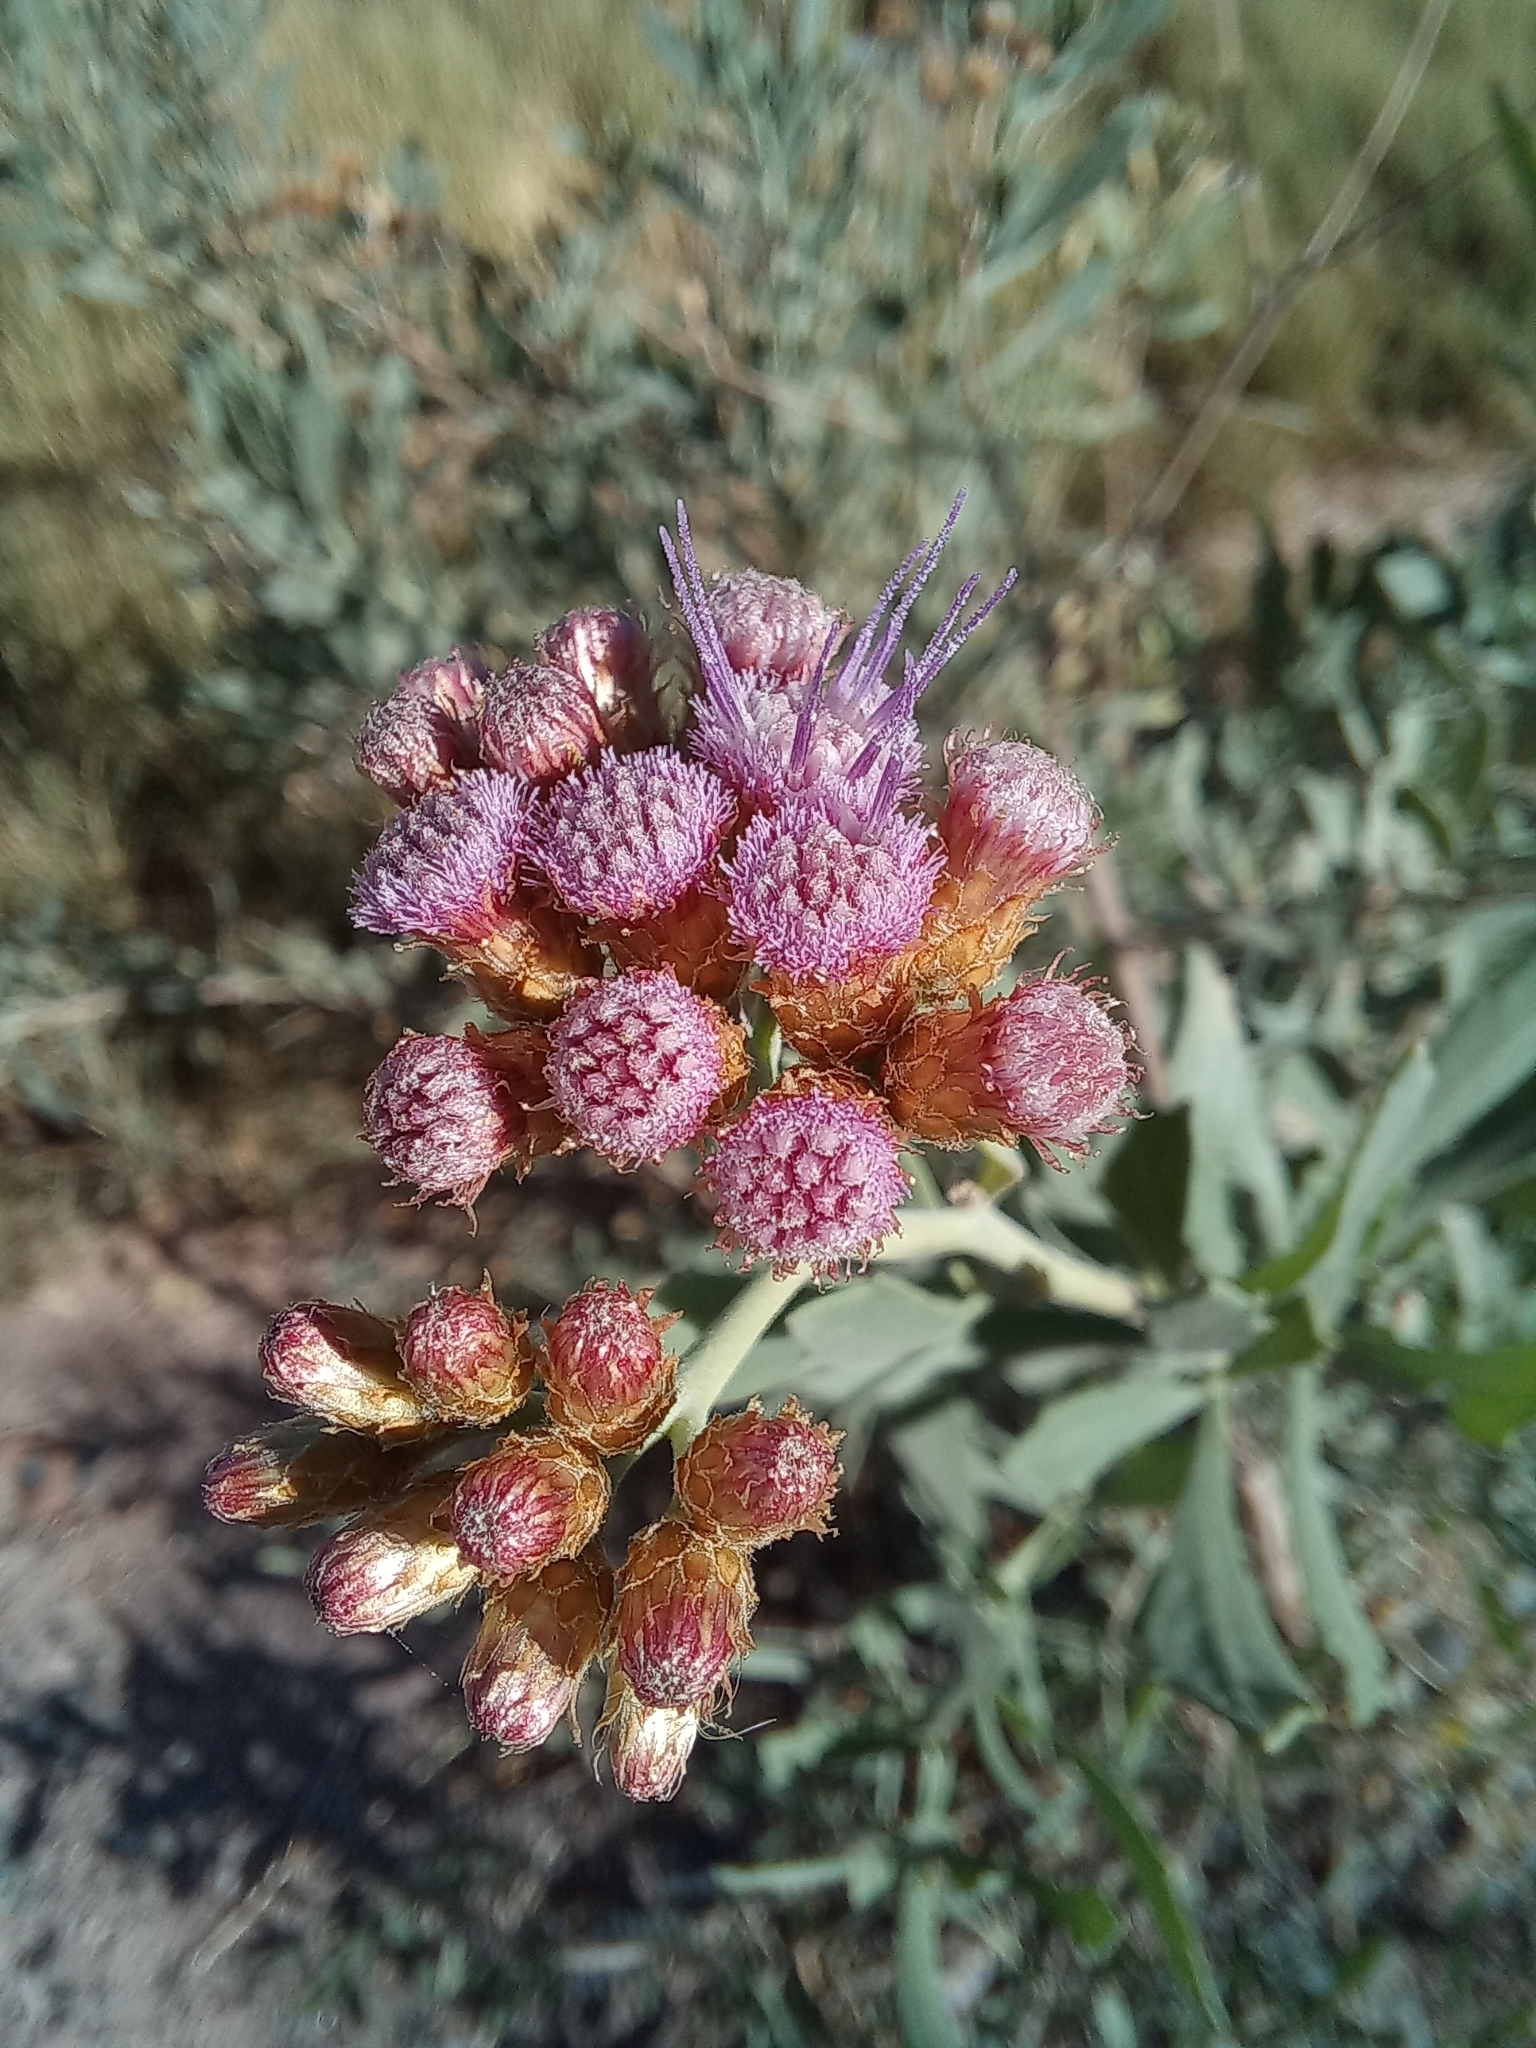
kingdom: Plantae
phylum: Tracheophyta
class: Magnoliopsida
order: Asterales
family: Asteraceae
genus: Tessaria
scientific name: Tessaria absinthioides
